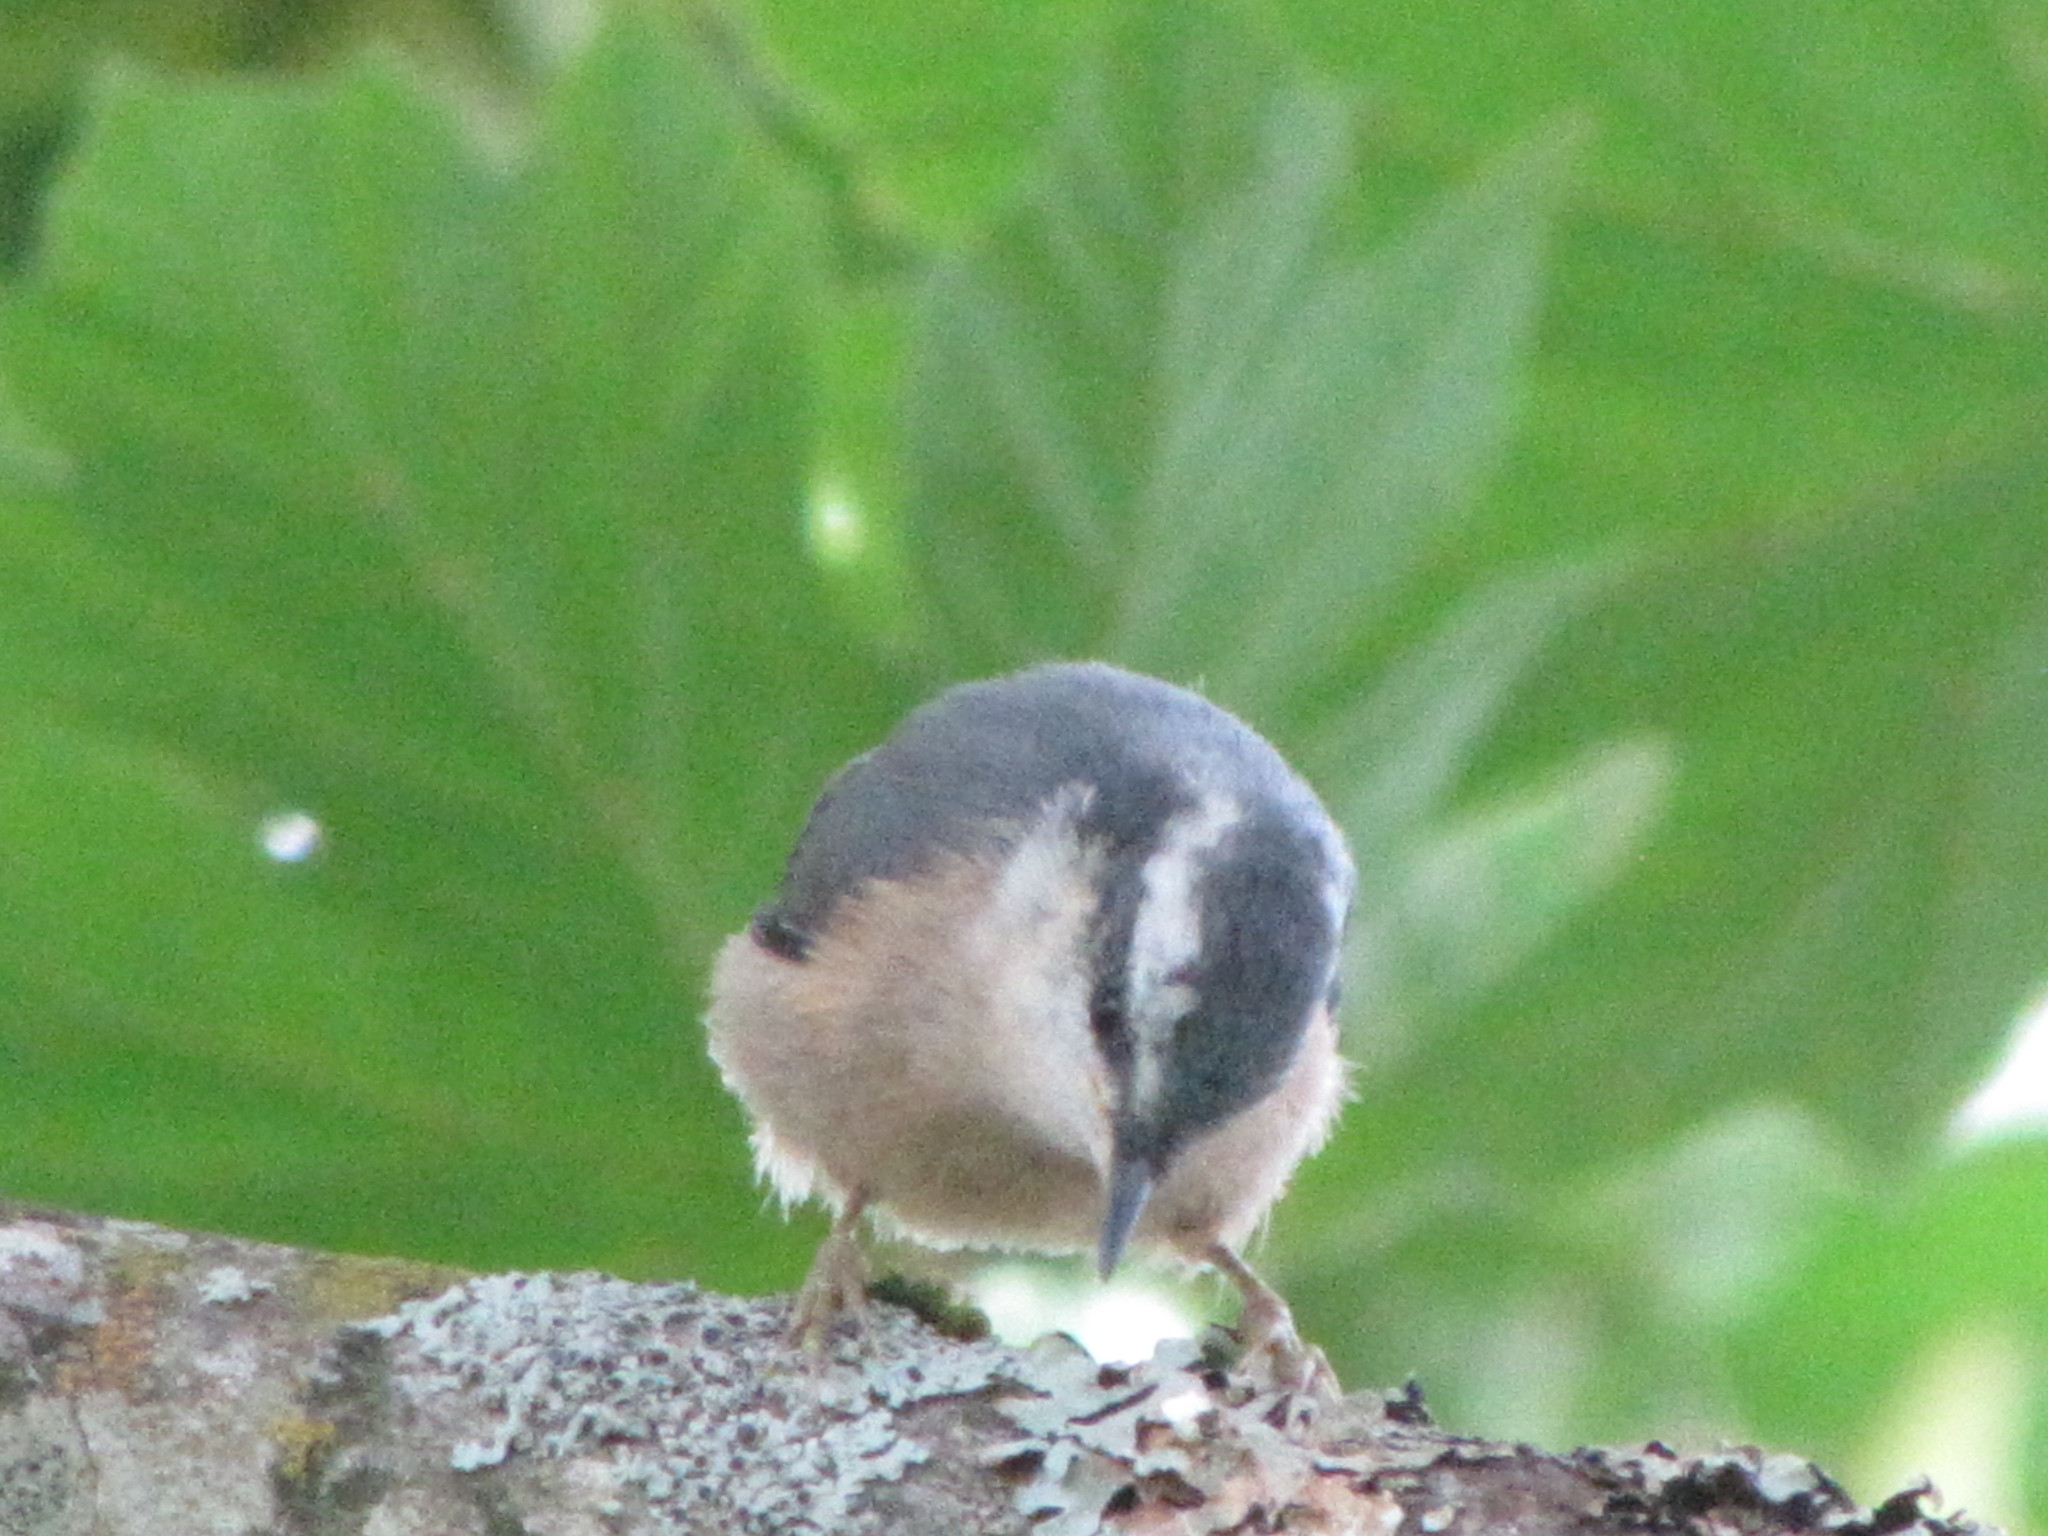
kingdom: Animalia
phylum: Chordata
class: Aves
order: Passeriformes
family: Sittidae
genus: Sitta
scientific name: Sitta canadensis
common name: Red-breasted nuthatch
